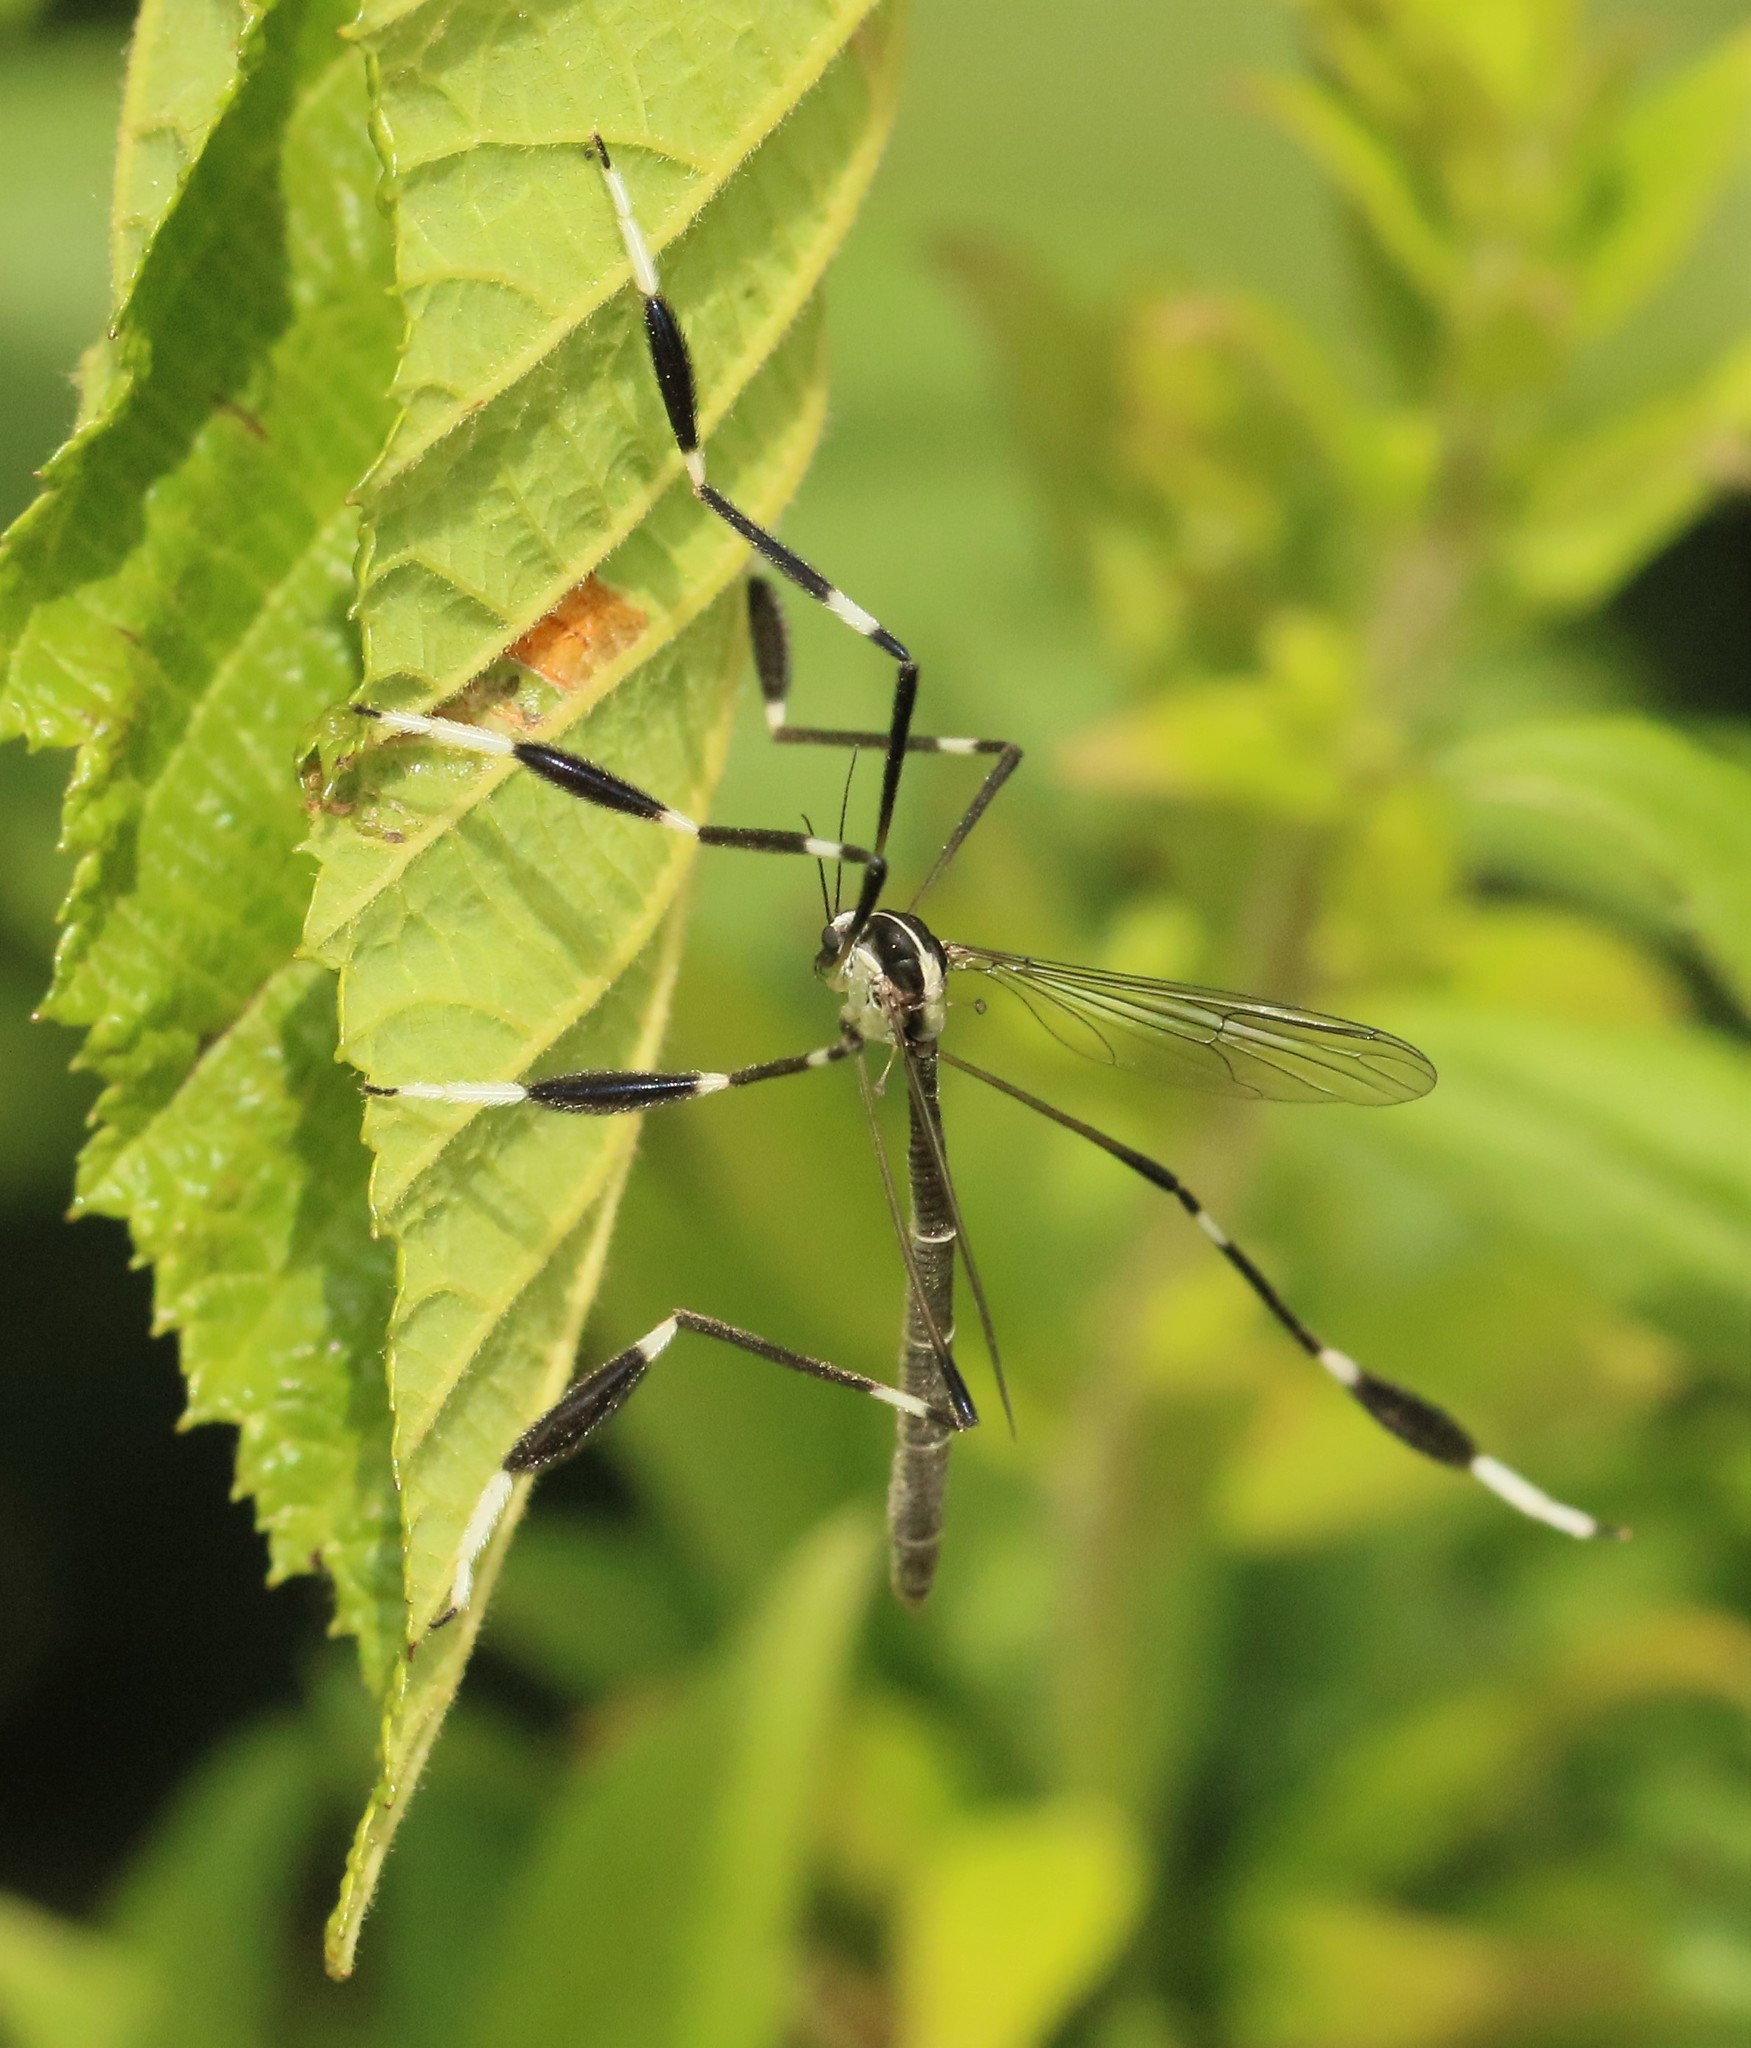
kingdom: Animalia
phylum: Arthropoda
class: Insecta
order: Diptera
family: Ptychopteridae
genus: Bittacomorpha
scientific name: Bittacomorpha clavipes
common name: Eastern phantom crane fly
